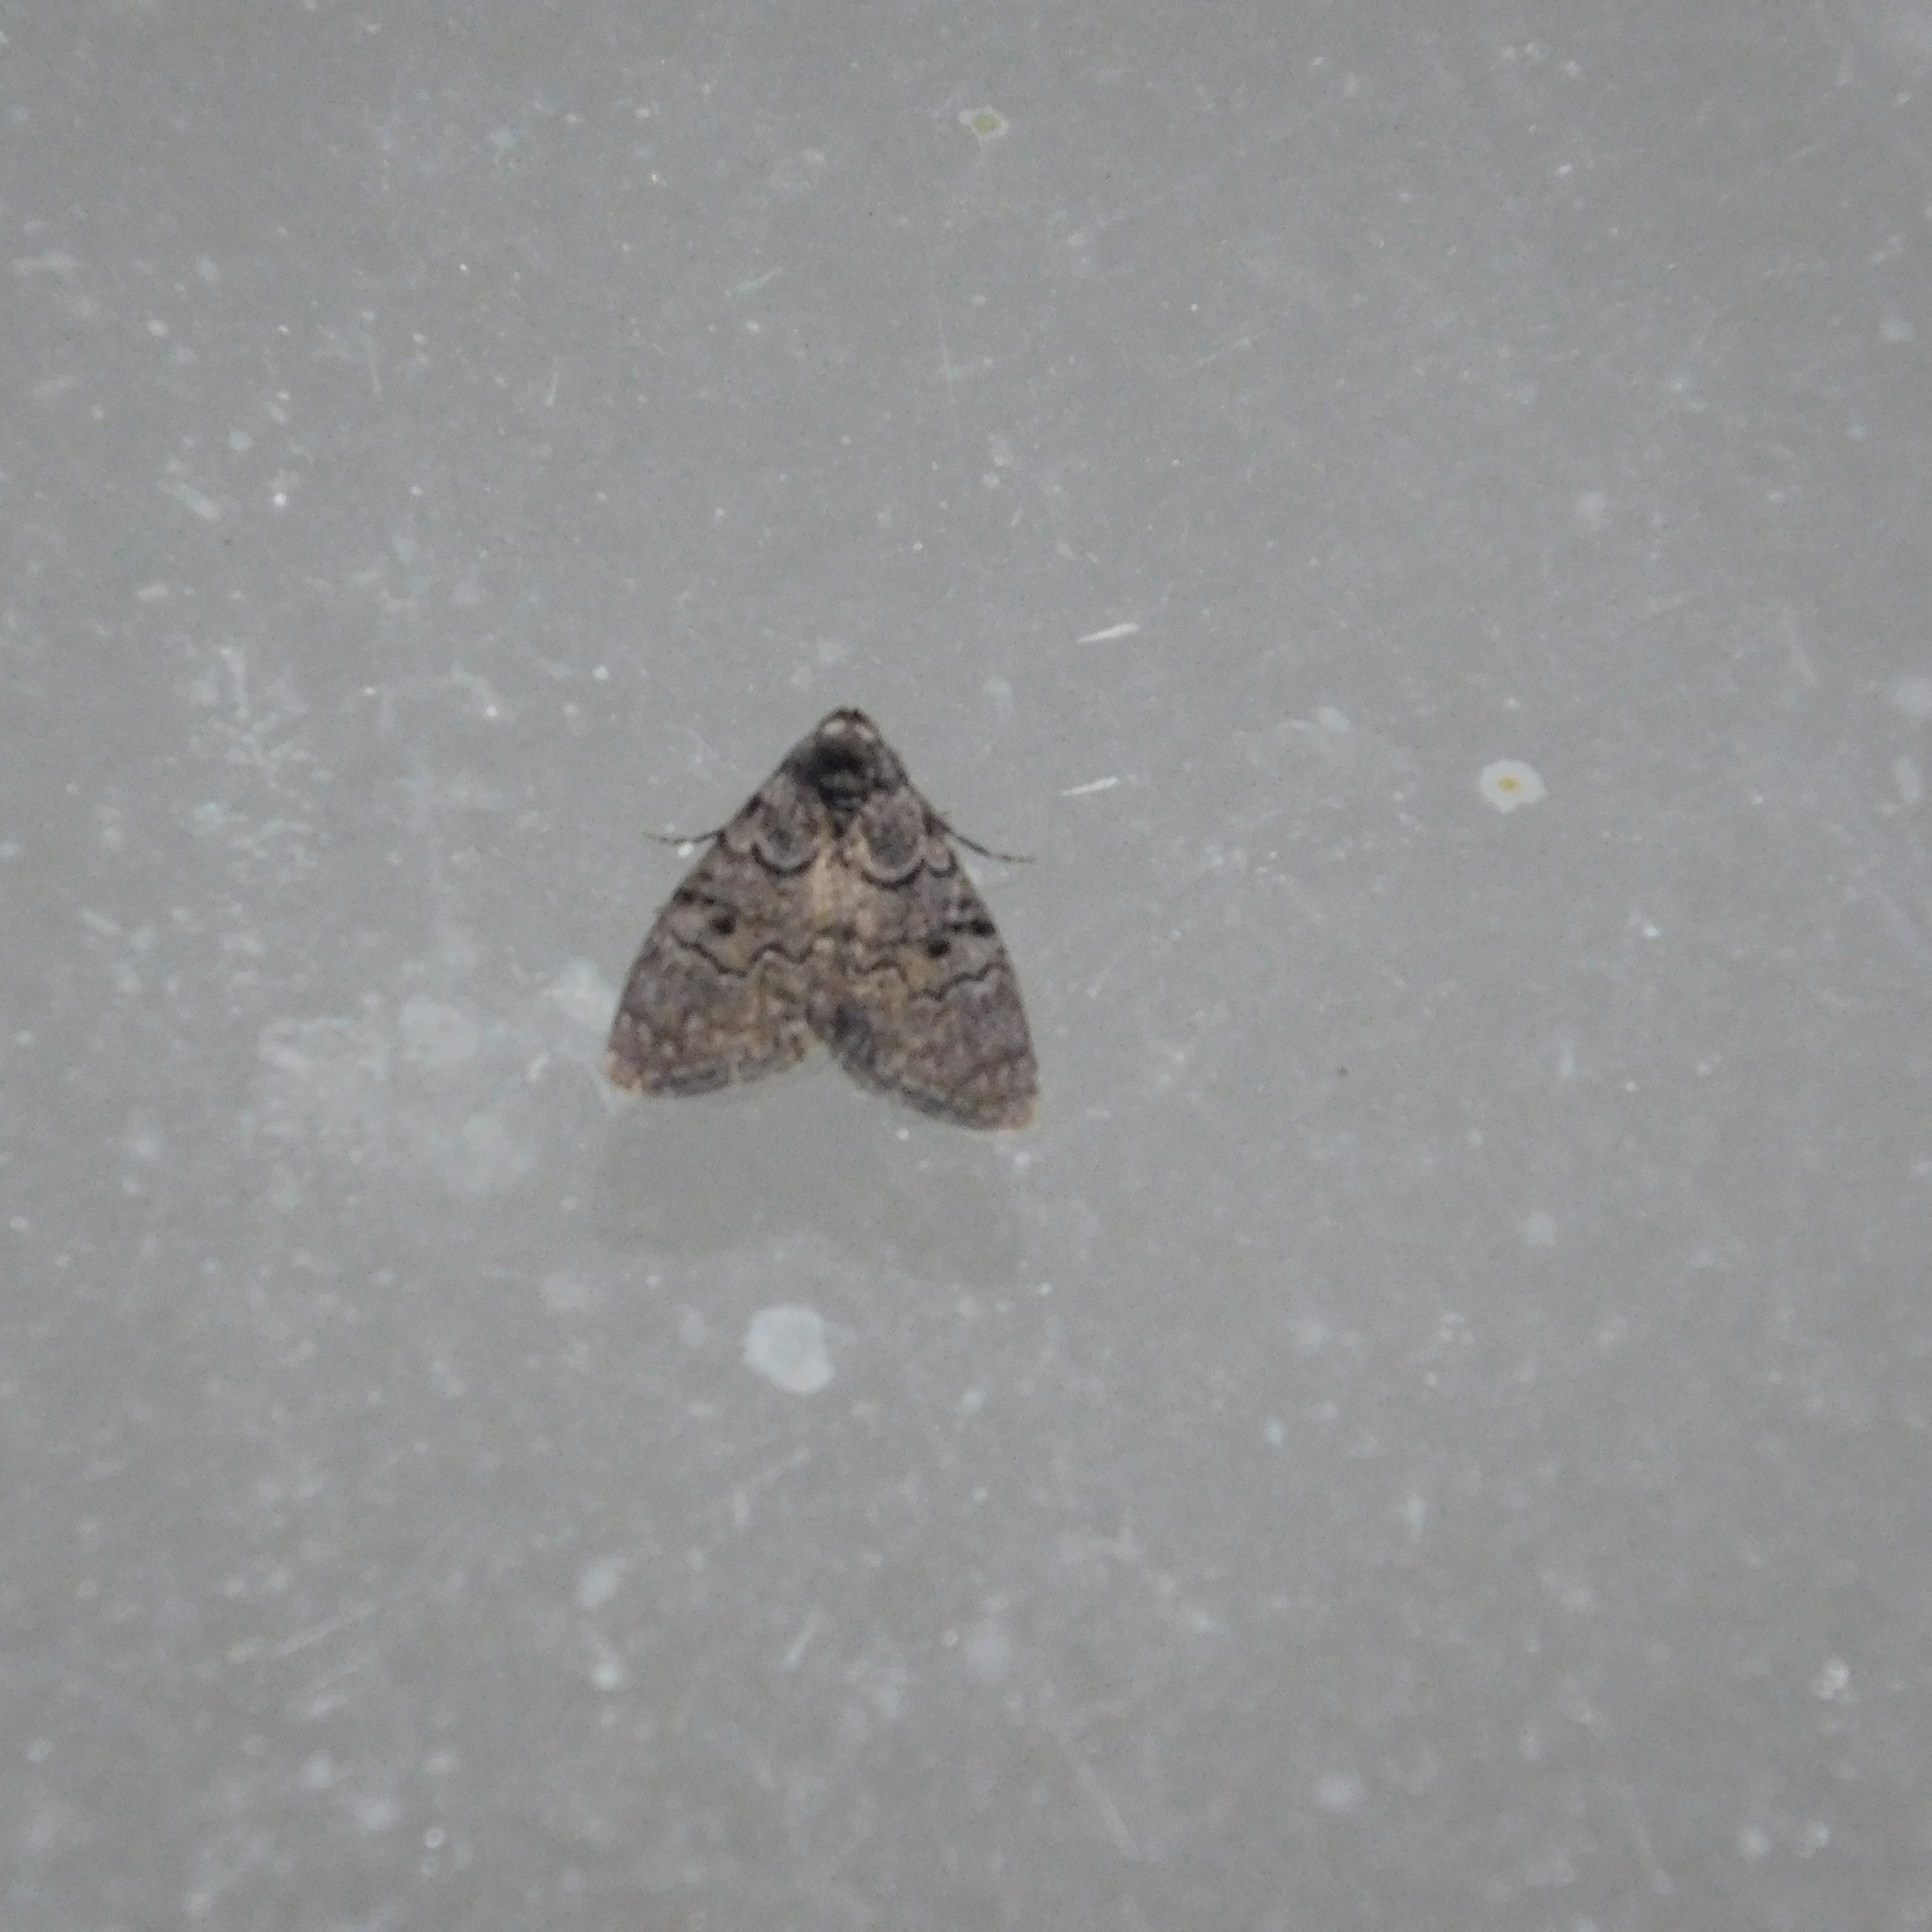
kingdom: Animalia
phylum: Arthropoda
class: Insecta
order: Lepidoptera
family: Nolidae
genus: Uraba
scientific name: Uraba lugens
